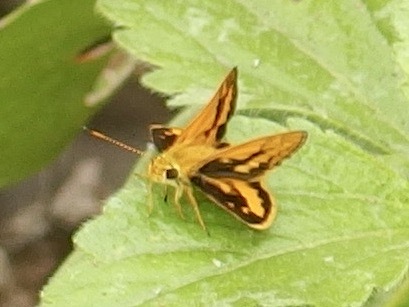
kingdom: Animalia
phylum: Arthropoda
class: Insecta
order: Lepidoptera
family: Hesperiidae
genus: Suniana
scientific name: Suniana sunias
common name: Wide-brand grass-dart
